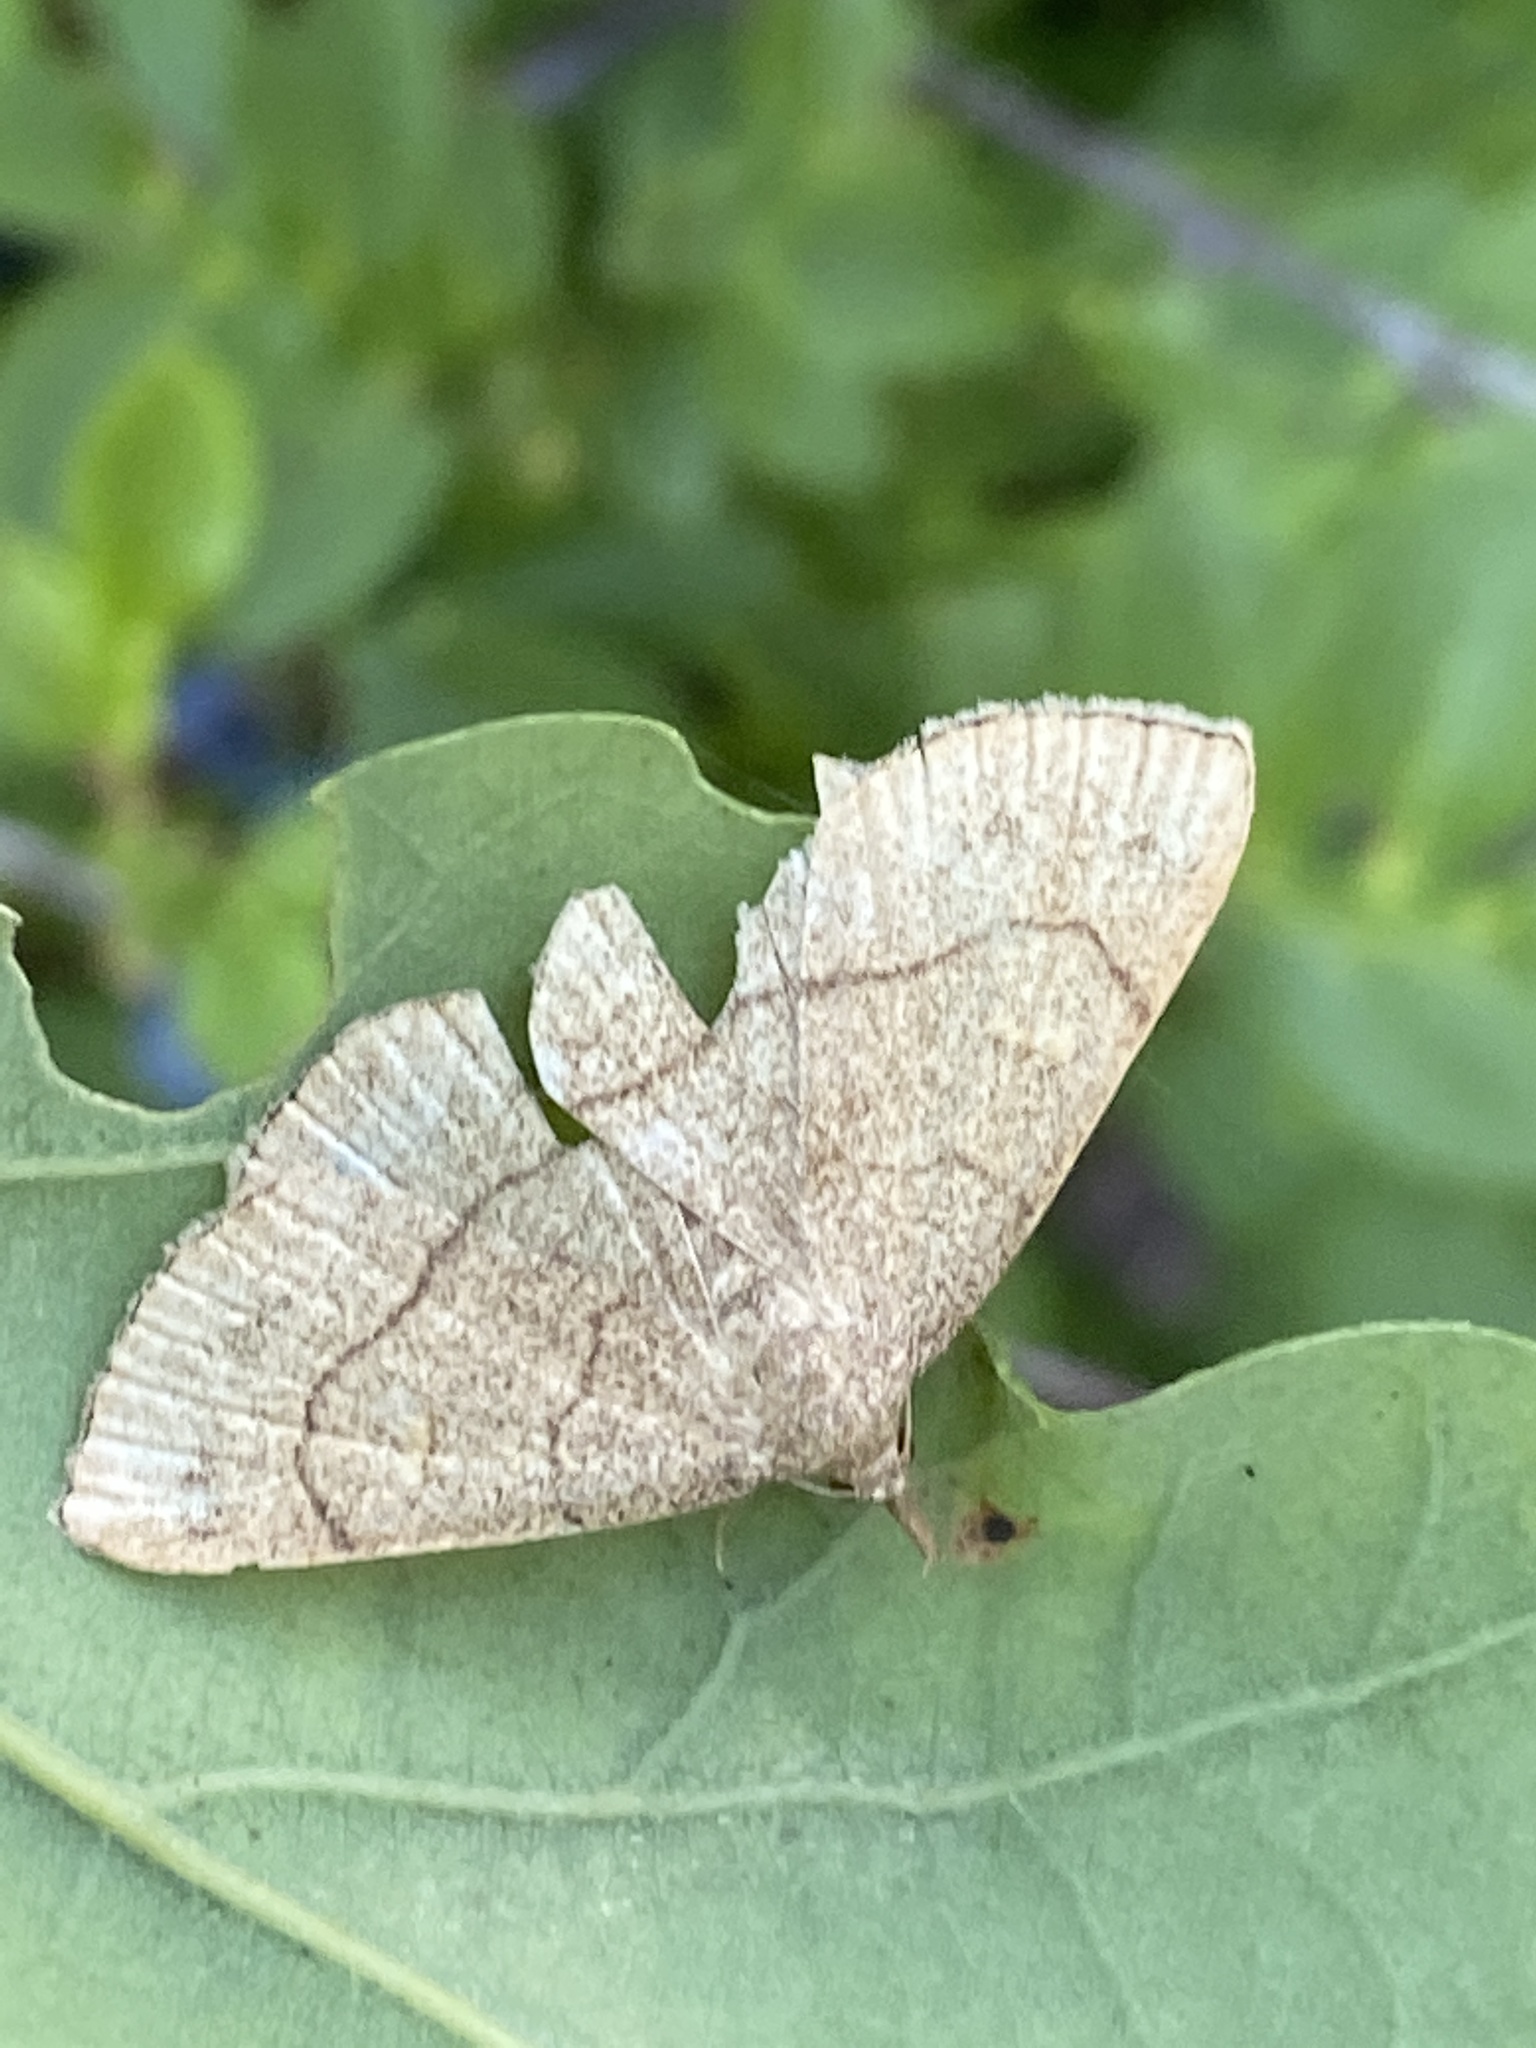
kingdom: Animalia
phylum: Arthropoda
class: Insecta
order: Lepidoptera
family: Erebidae
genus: Paracolax
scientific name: Paracolax tristalis
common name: Clay fan-foot
